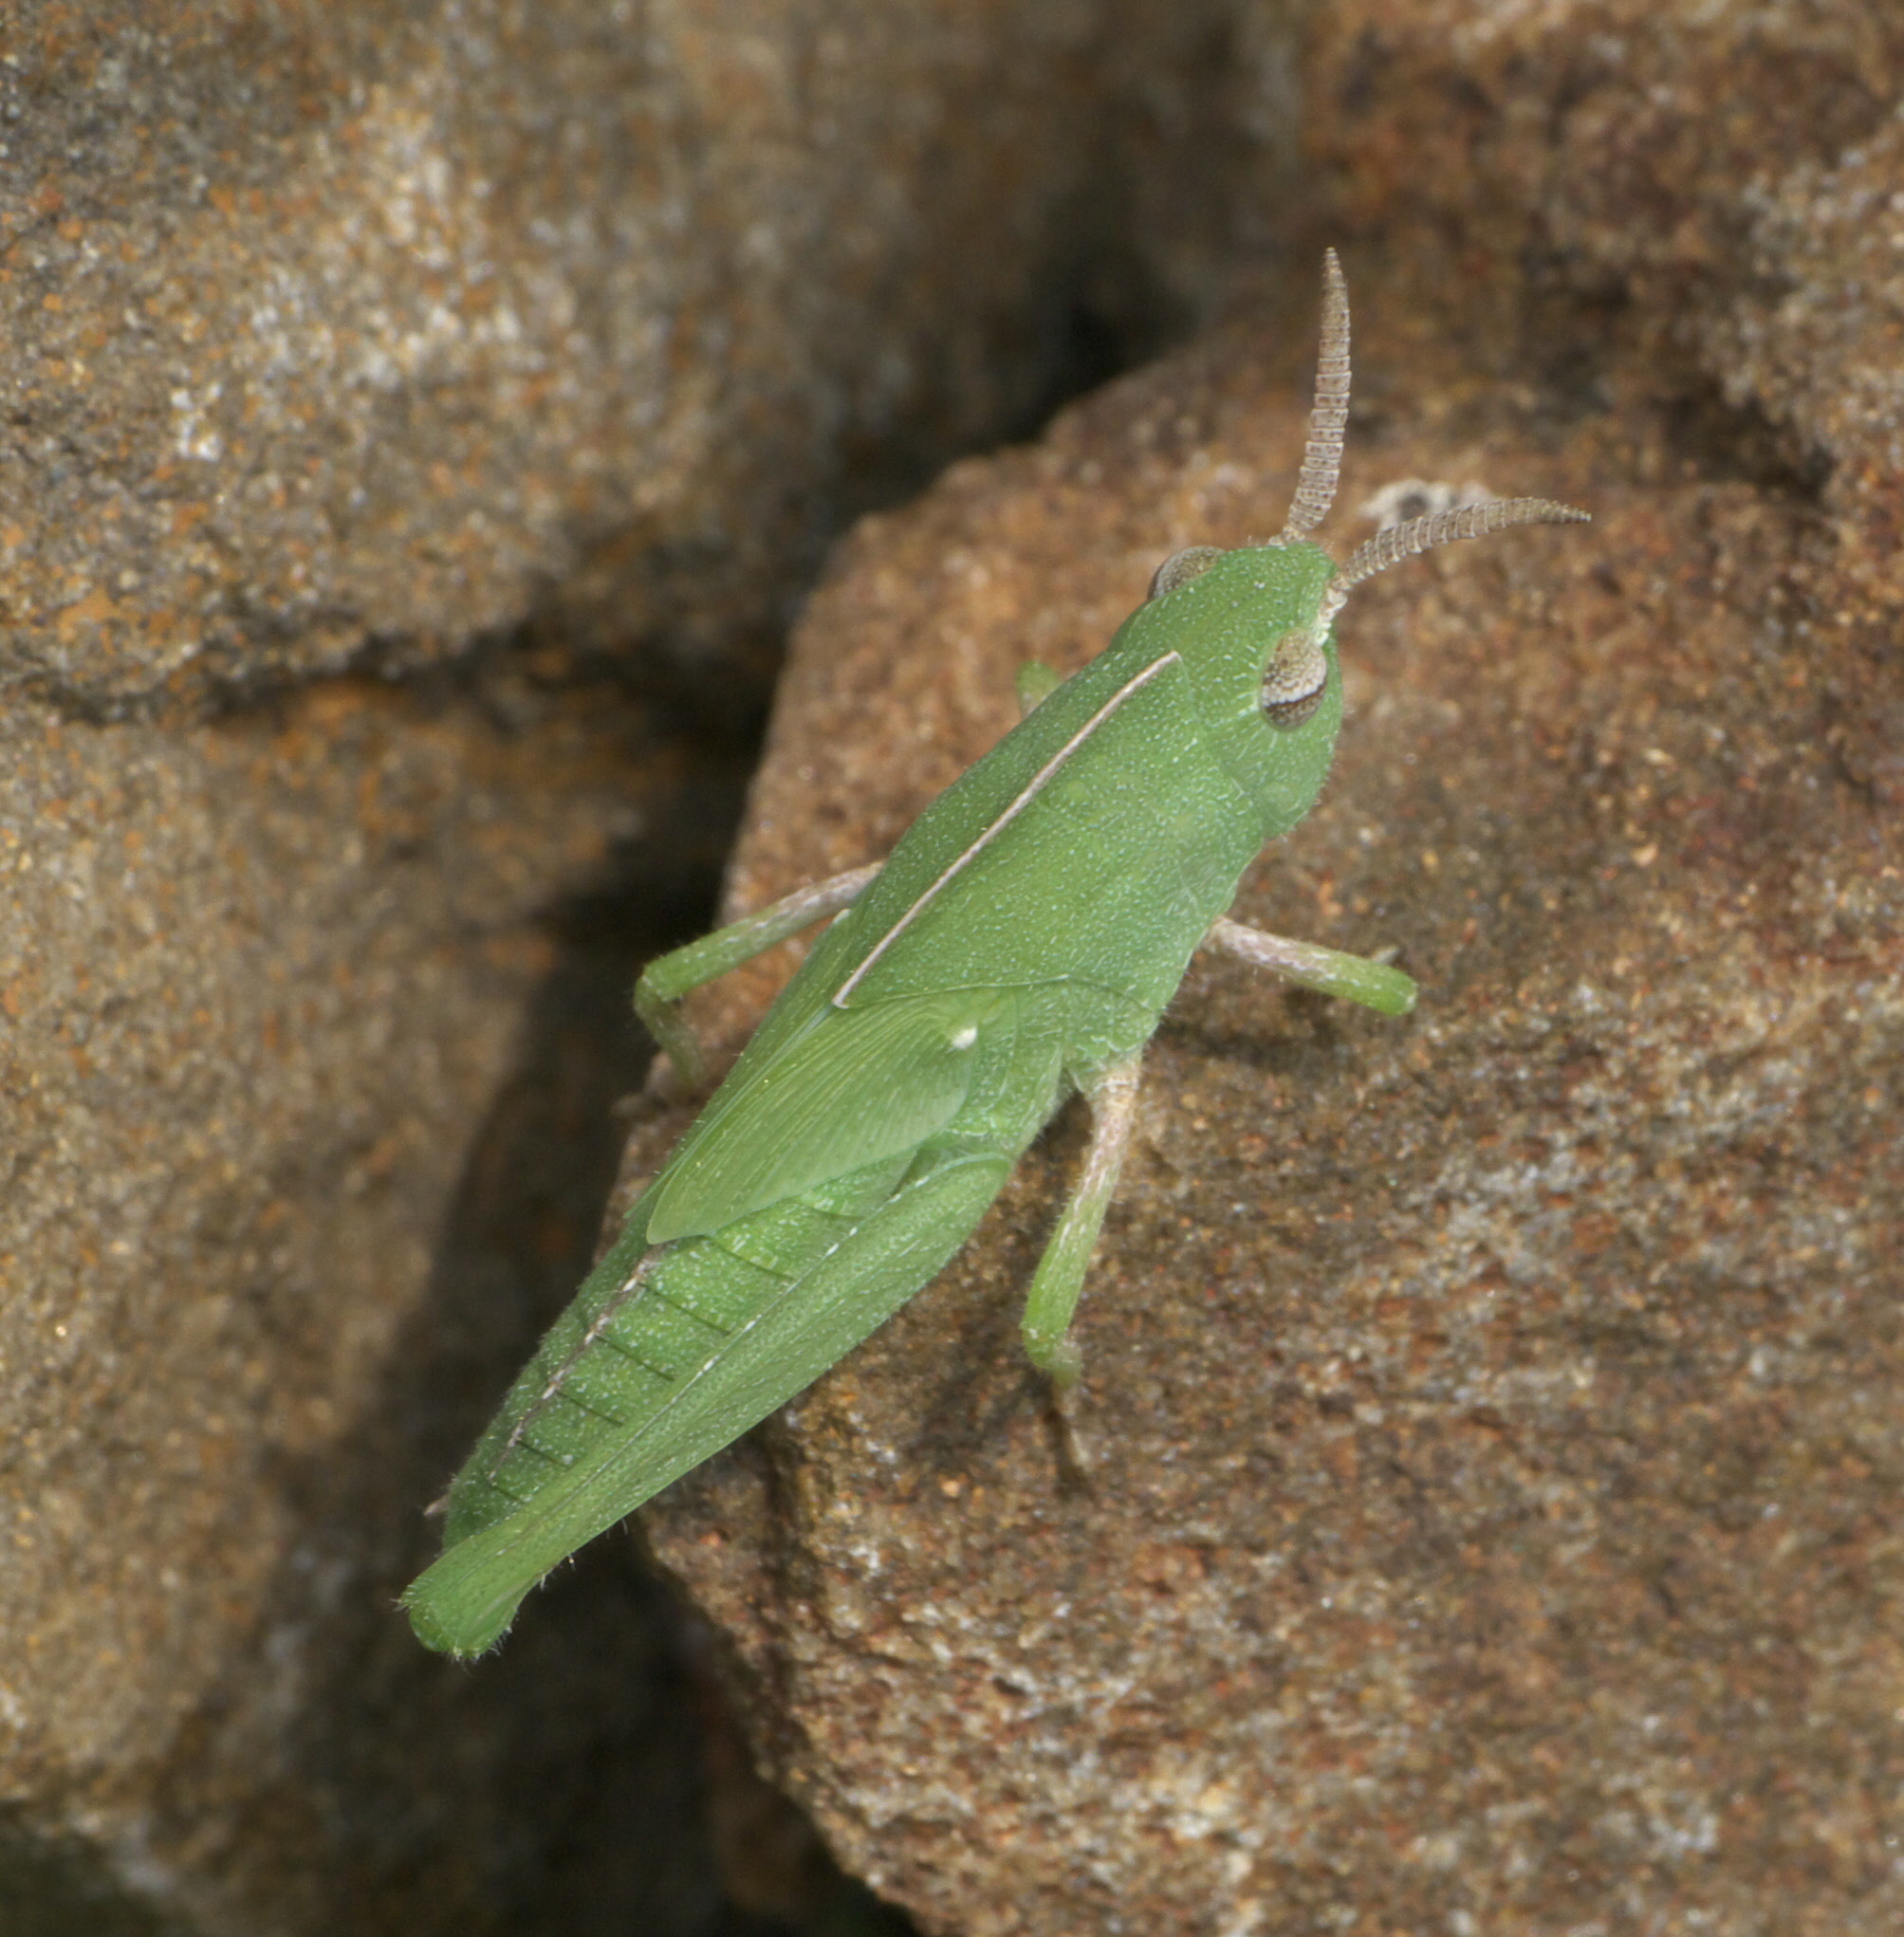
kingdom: Animalia
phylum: Arthropoda
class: Insecta
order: Orthoptera
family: Acrididae
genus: Chortophaga
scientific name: Chortophaga viridifasciata
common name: Green-striped grasshopper
